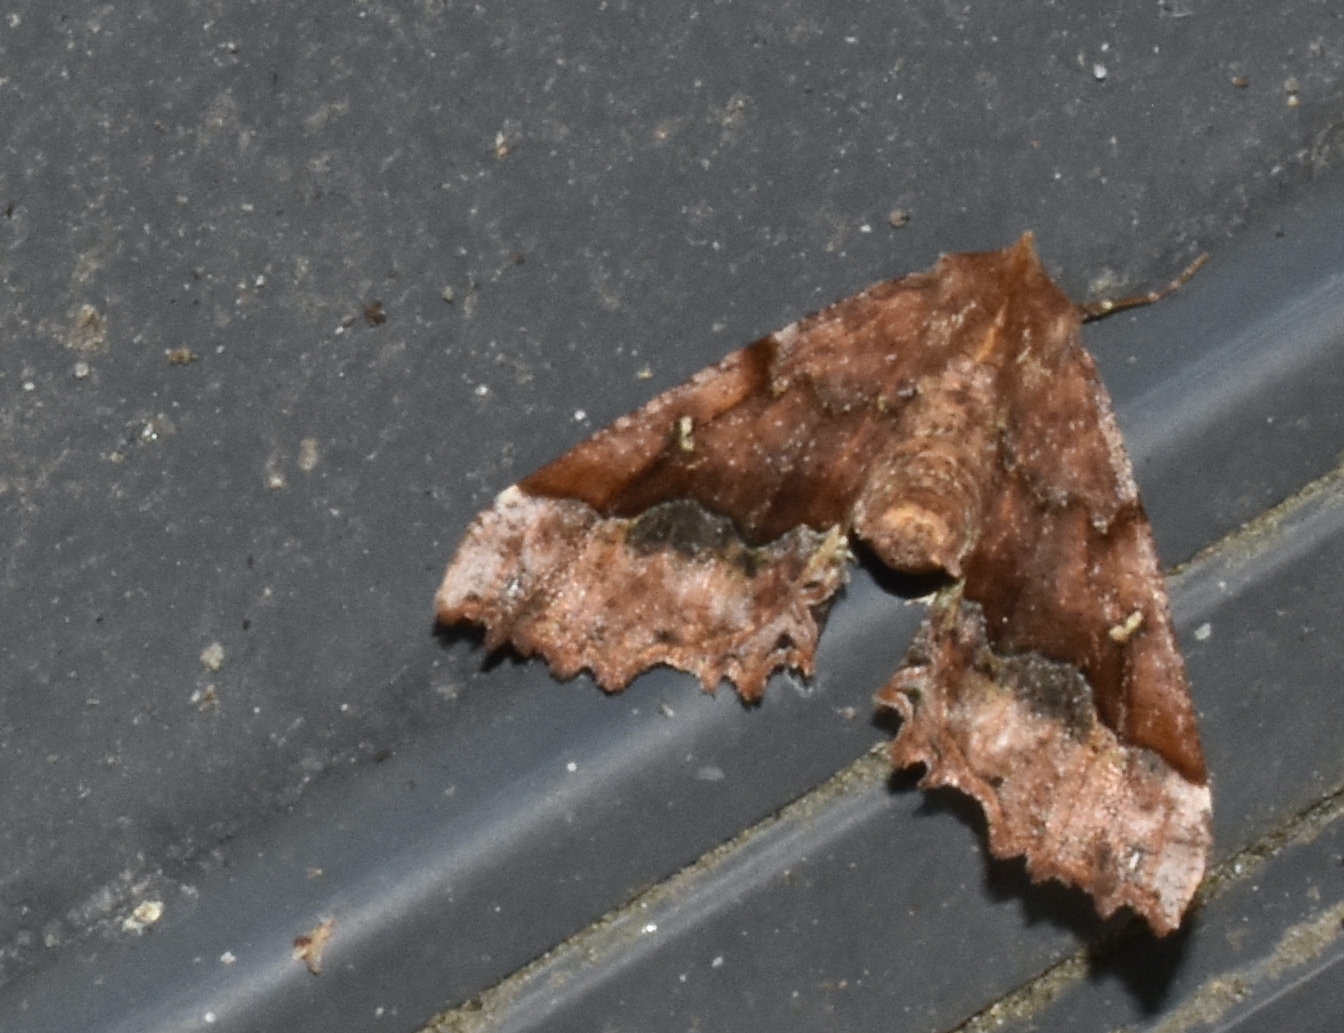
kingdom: Animalia
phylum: Arthropoda
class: Insecta
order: Lepidoptera
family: Geometridae
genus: Pero
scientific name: Pero morrisonaria
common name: Morrison's pero
